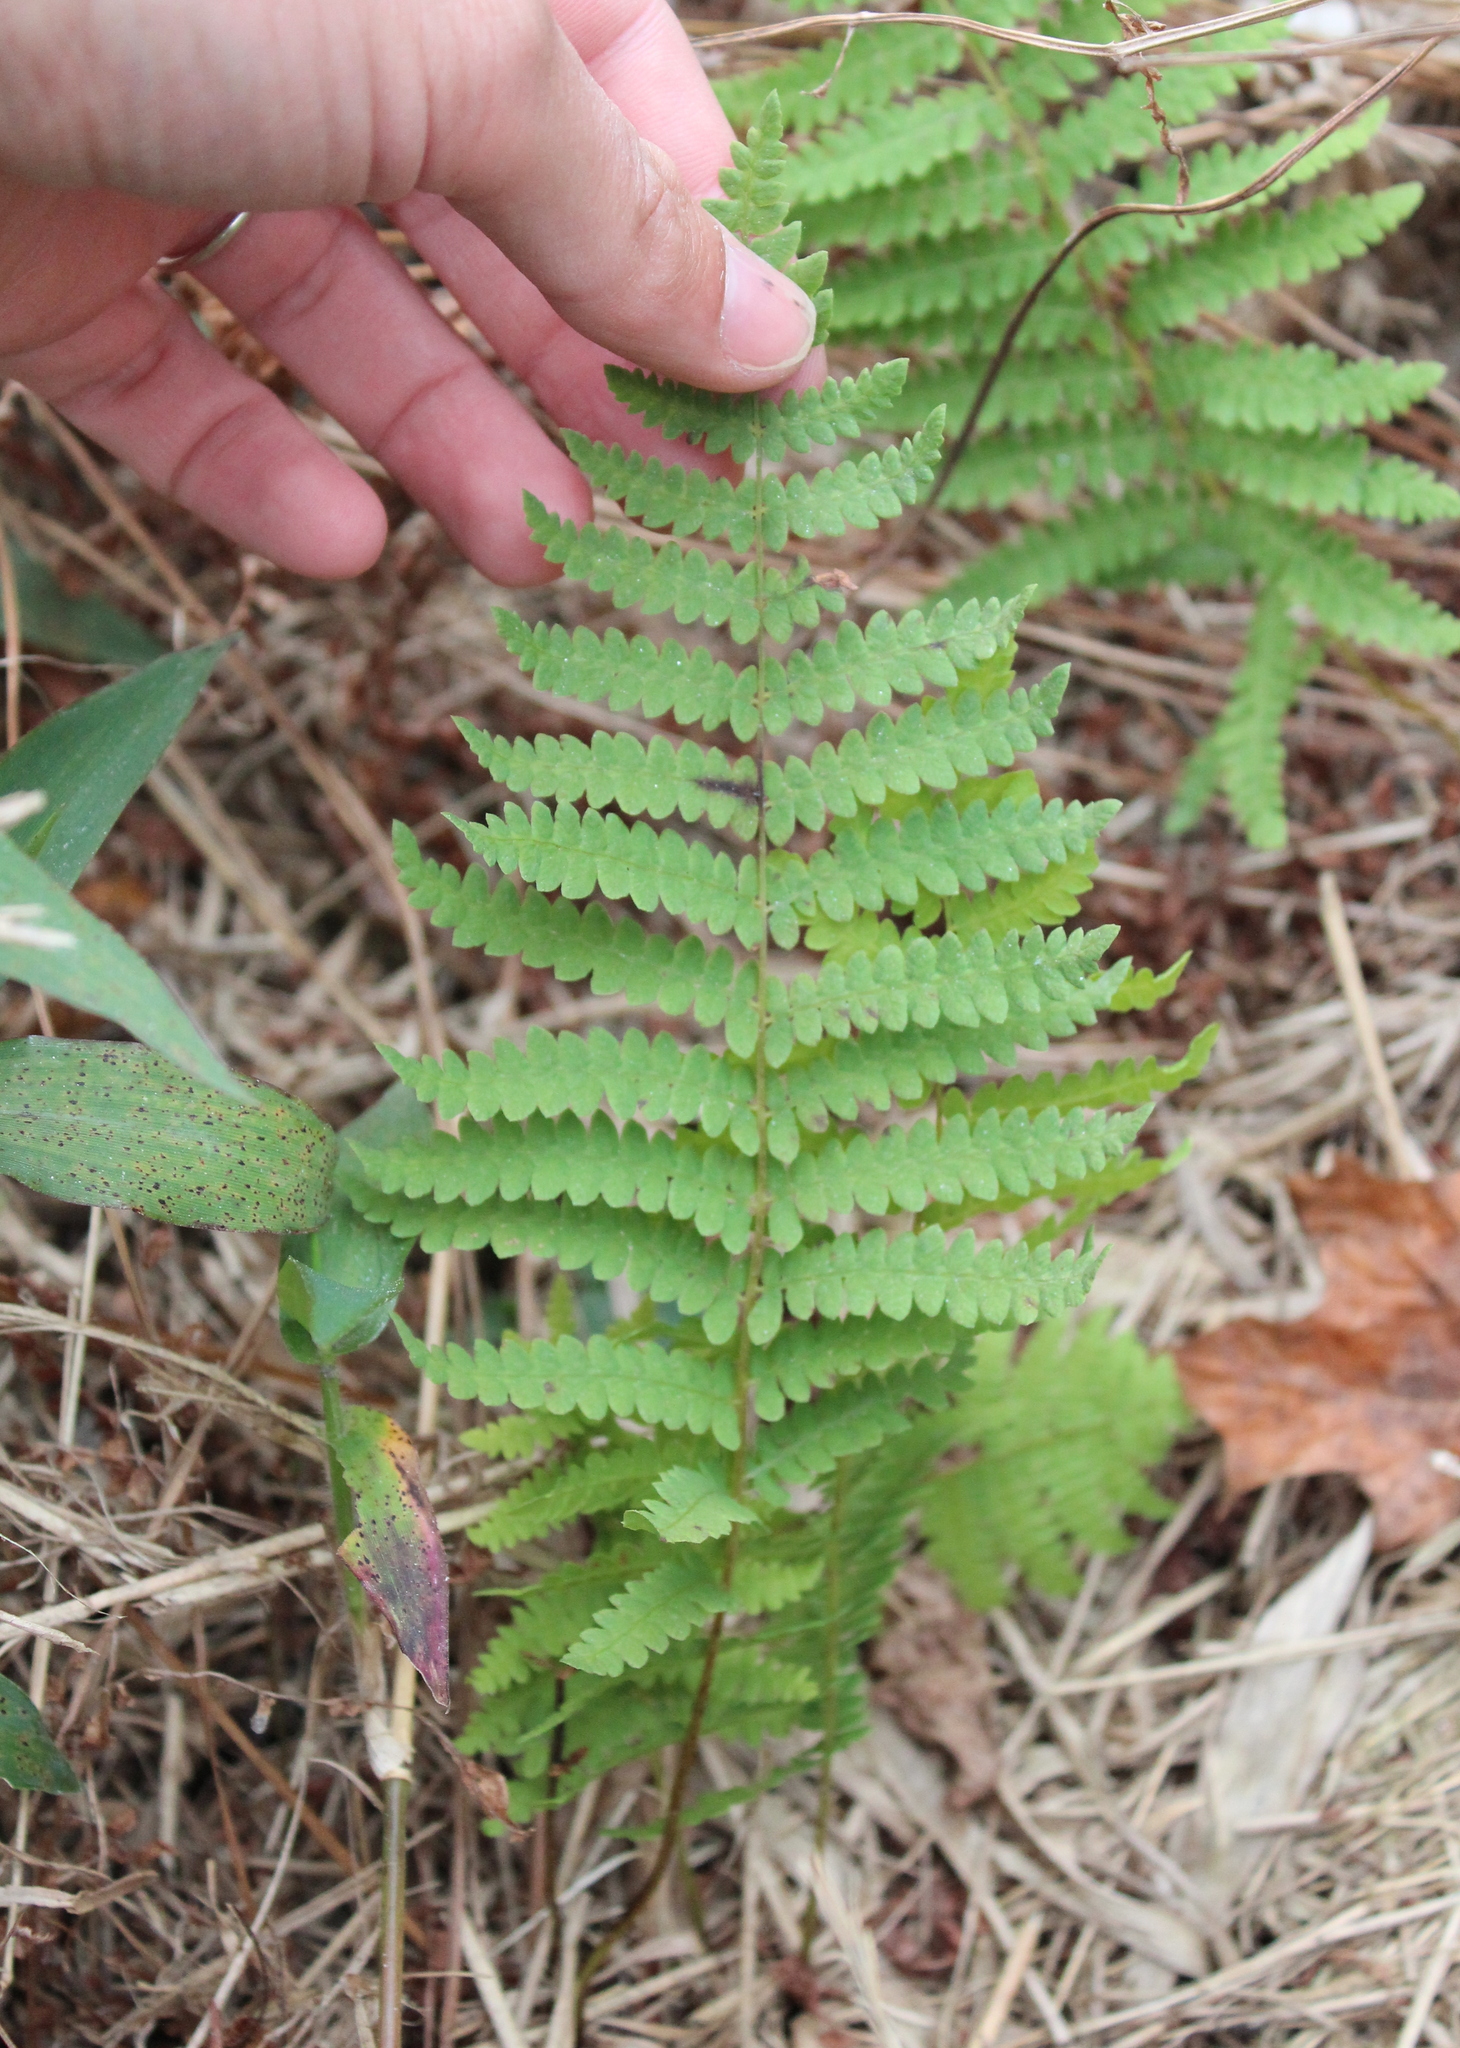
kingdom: Plantae
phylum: Tracheophyta
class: Polypodiopsida
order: Polypodiales
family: Thelypteridaceae
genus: Thelypteris
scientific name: Thelypteris palustris
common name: Marsh fern
